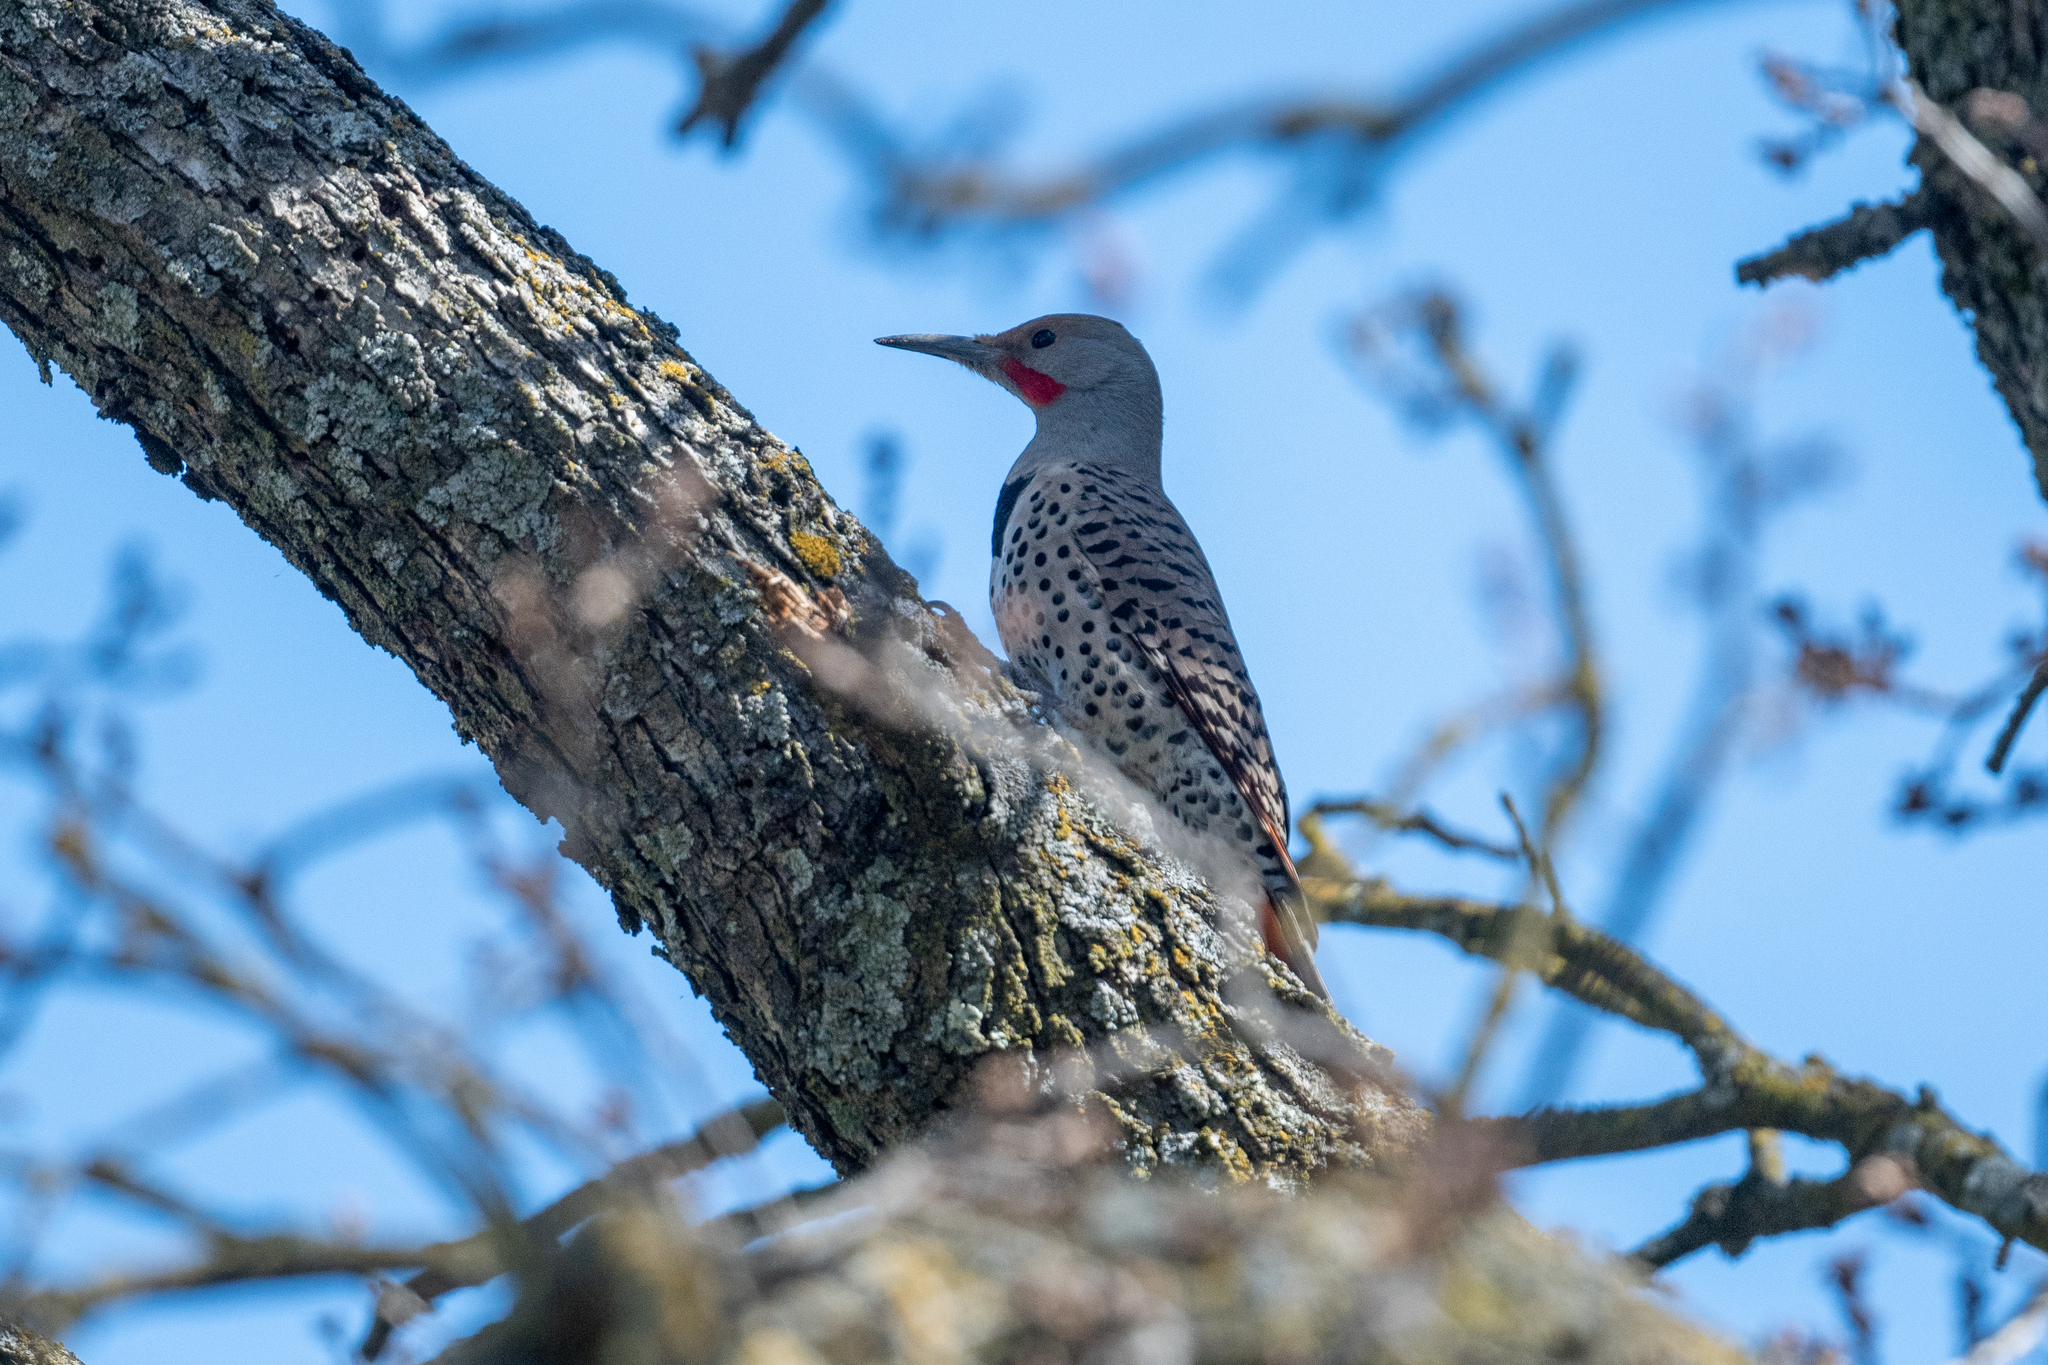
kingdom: Animalia
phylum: Chordata
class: Aves
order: Piciformes
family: Picidae
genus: Colaptes
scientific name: Colaptes auratus
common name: Northern flicker
